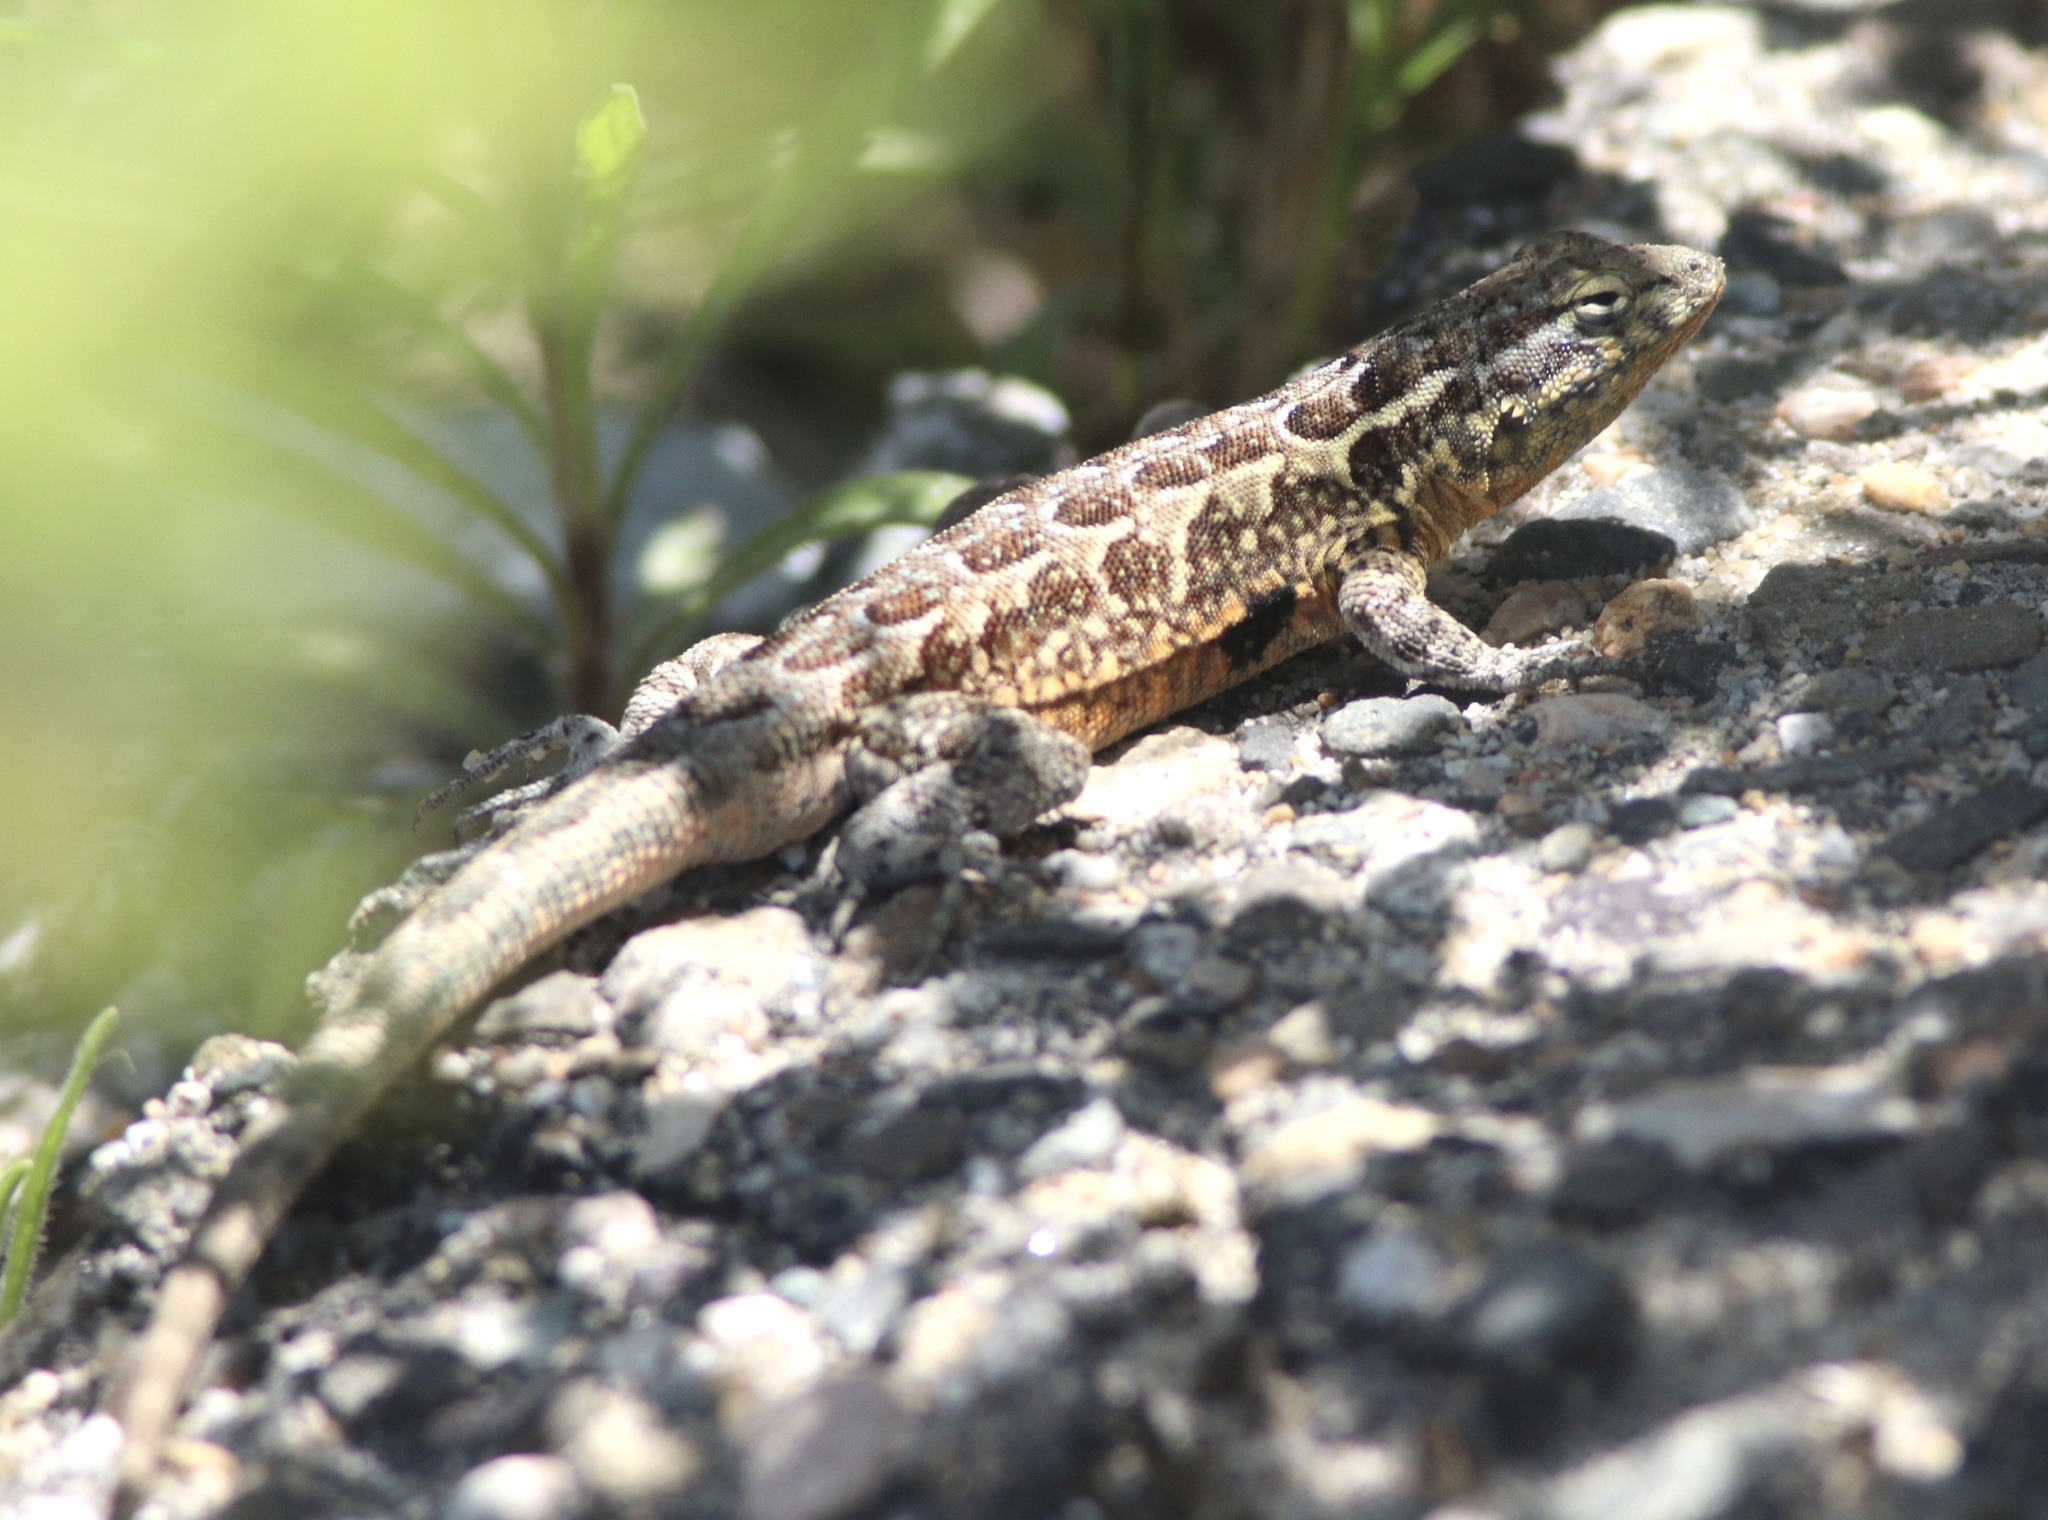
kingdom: Animalia
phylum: Chordata
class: Squamata
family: Phrynosomatidae
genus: Uta
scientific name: Uta stansburiana
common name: Side-blotched lizard
